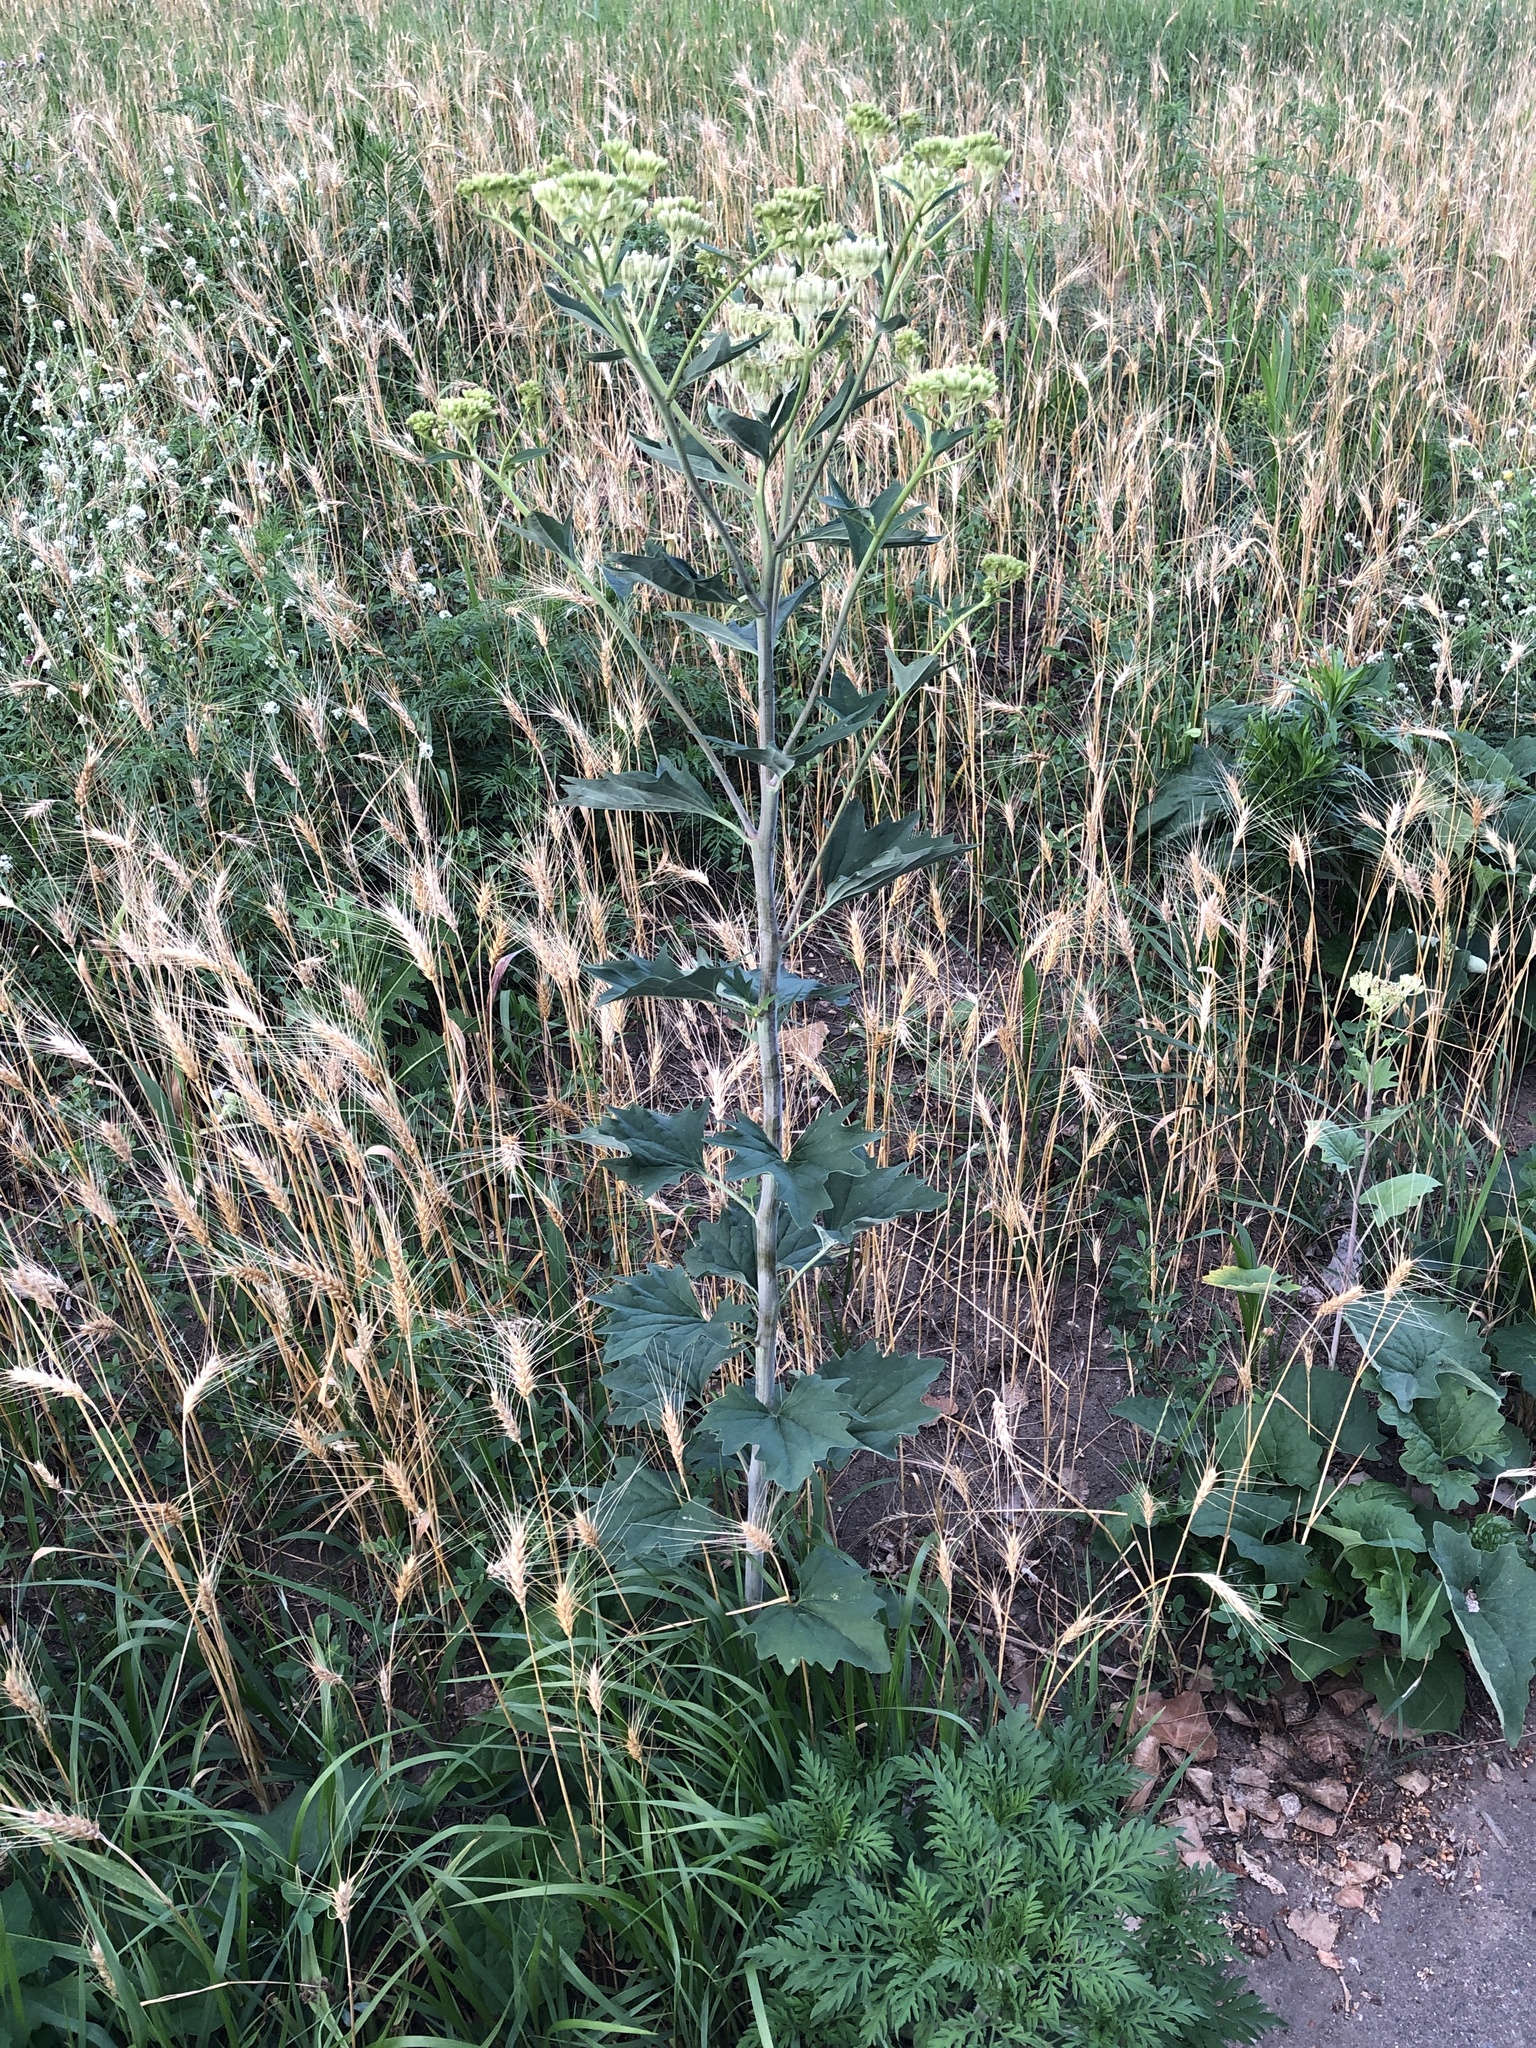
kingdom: Plantae
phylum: Tracheophyta
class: Magnoliopsida
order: Asterales
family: Asteraceae
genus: Arnoglossum
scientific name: Arnoglossum atriplicifolium
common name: Pale indian-plantain
